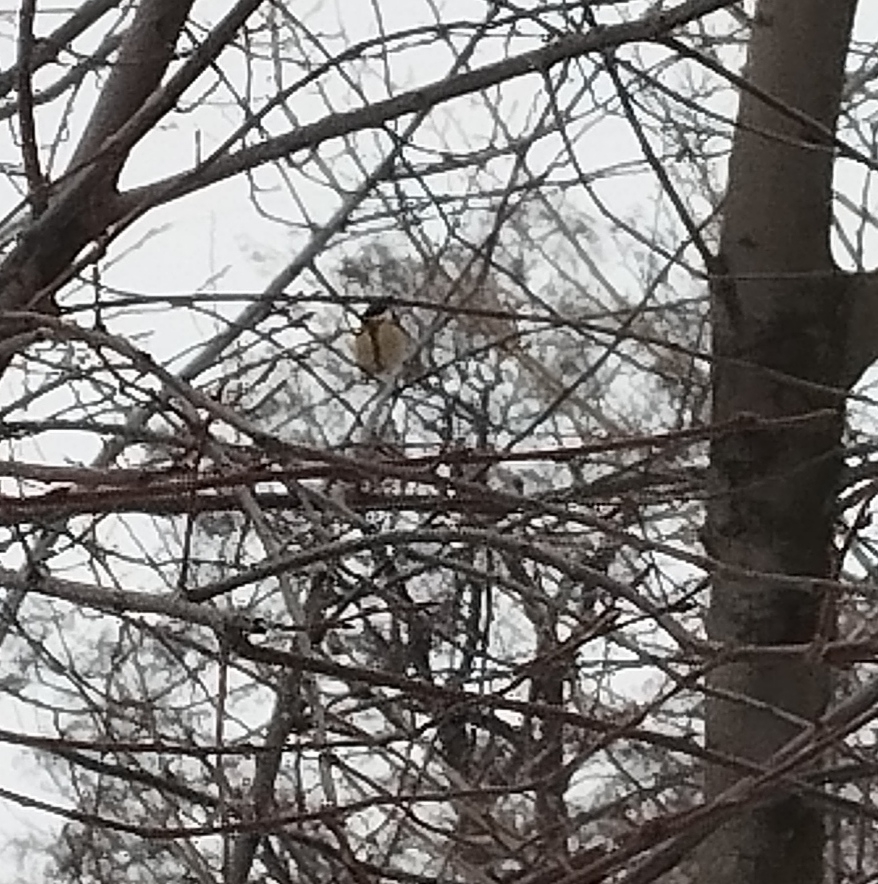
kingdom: Animalia
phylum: Chordata
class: Aves
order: Passeriformes
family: Paridae
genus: Parus
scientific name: Parus major
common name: Great tit
